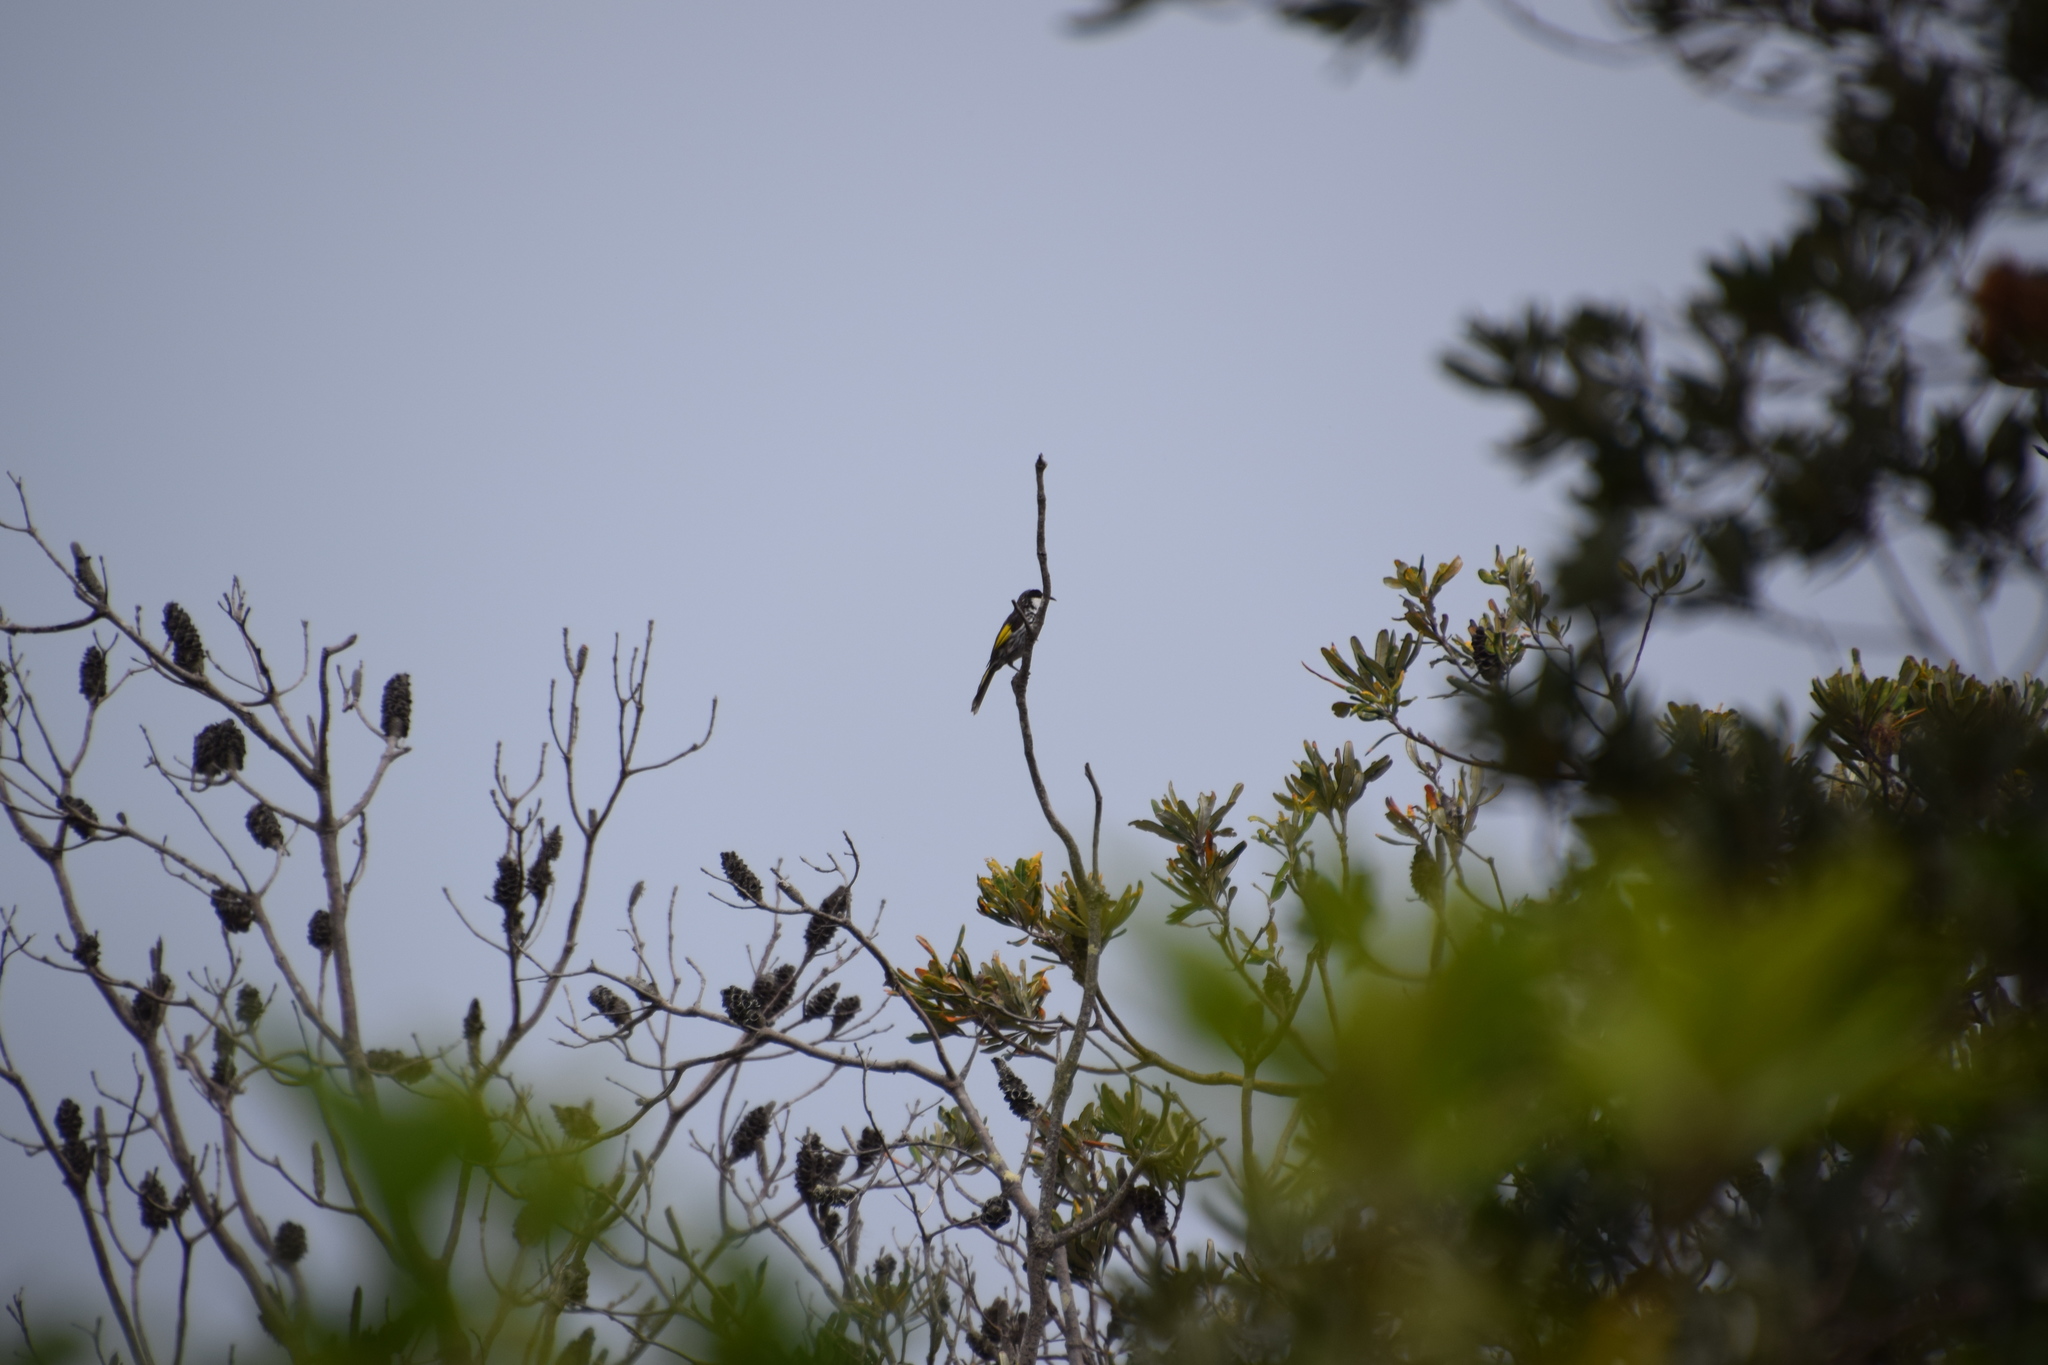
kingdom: Animalia
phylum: Chordata
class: Aves
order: Passeriformes
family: Meliphagidae
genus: Phylidonyris
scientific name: Phylidonyris niger
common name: White-cheeked honeyeater
